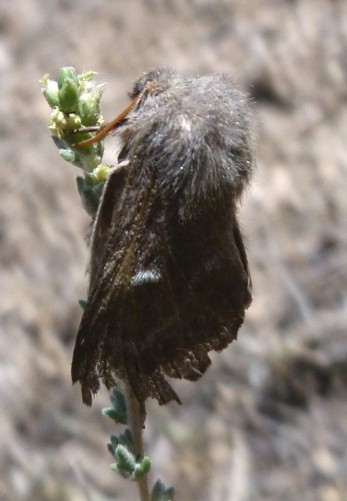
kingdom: Animalia
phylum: Arthropoda
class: Insecta
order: Lepidoptera
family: Lasiocampidae
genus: Psilogaster
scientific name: Psilogaster loti
